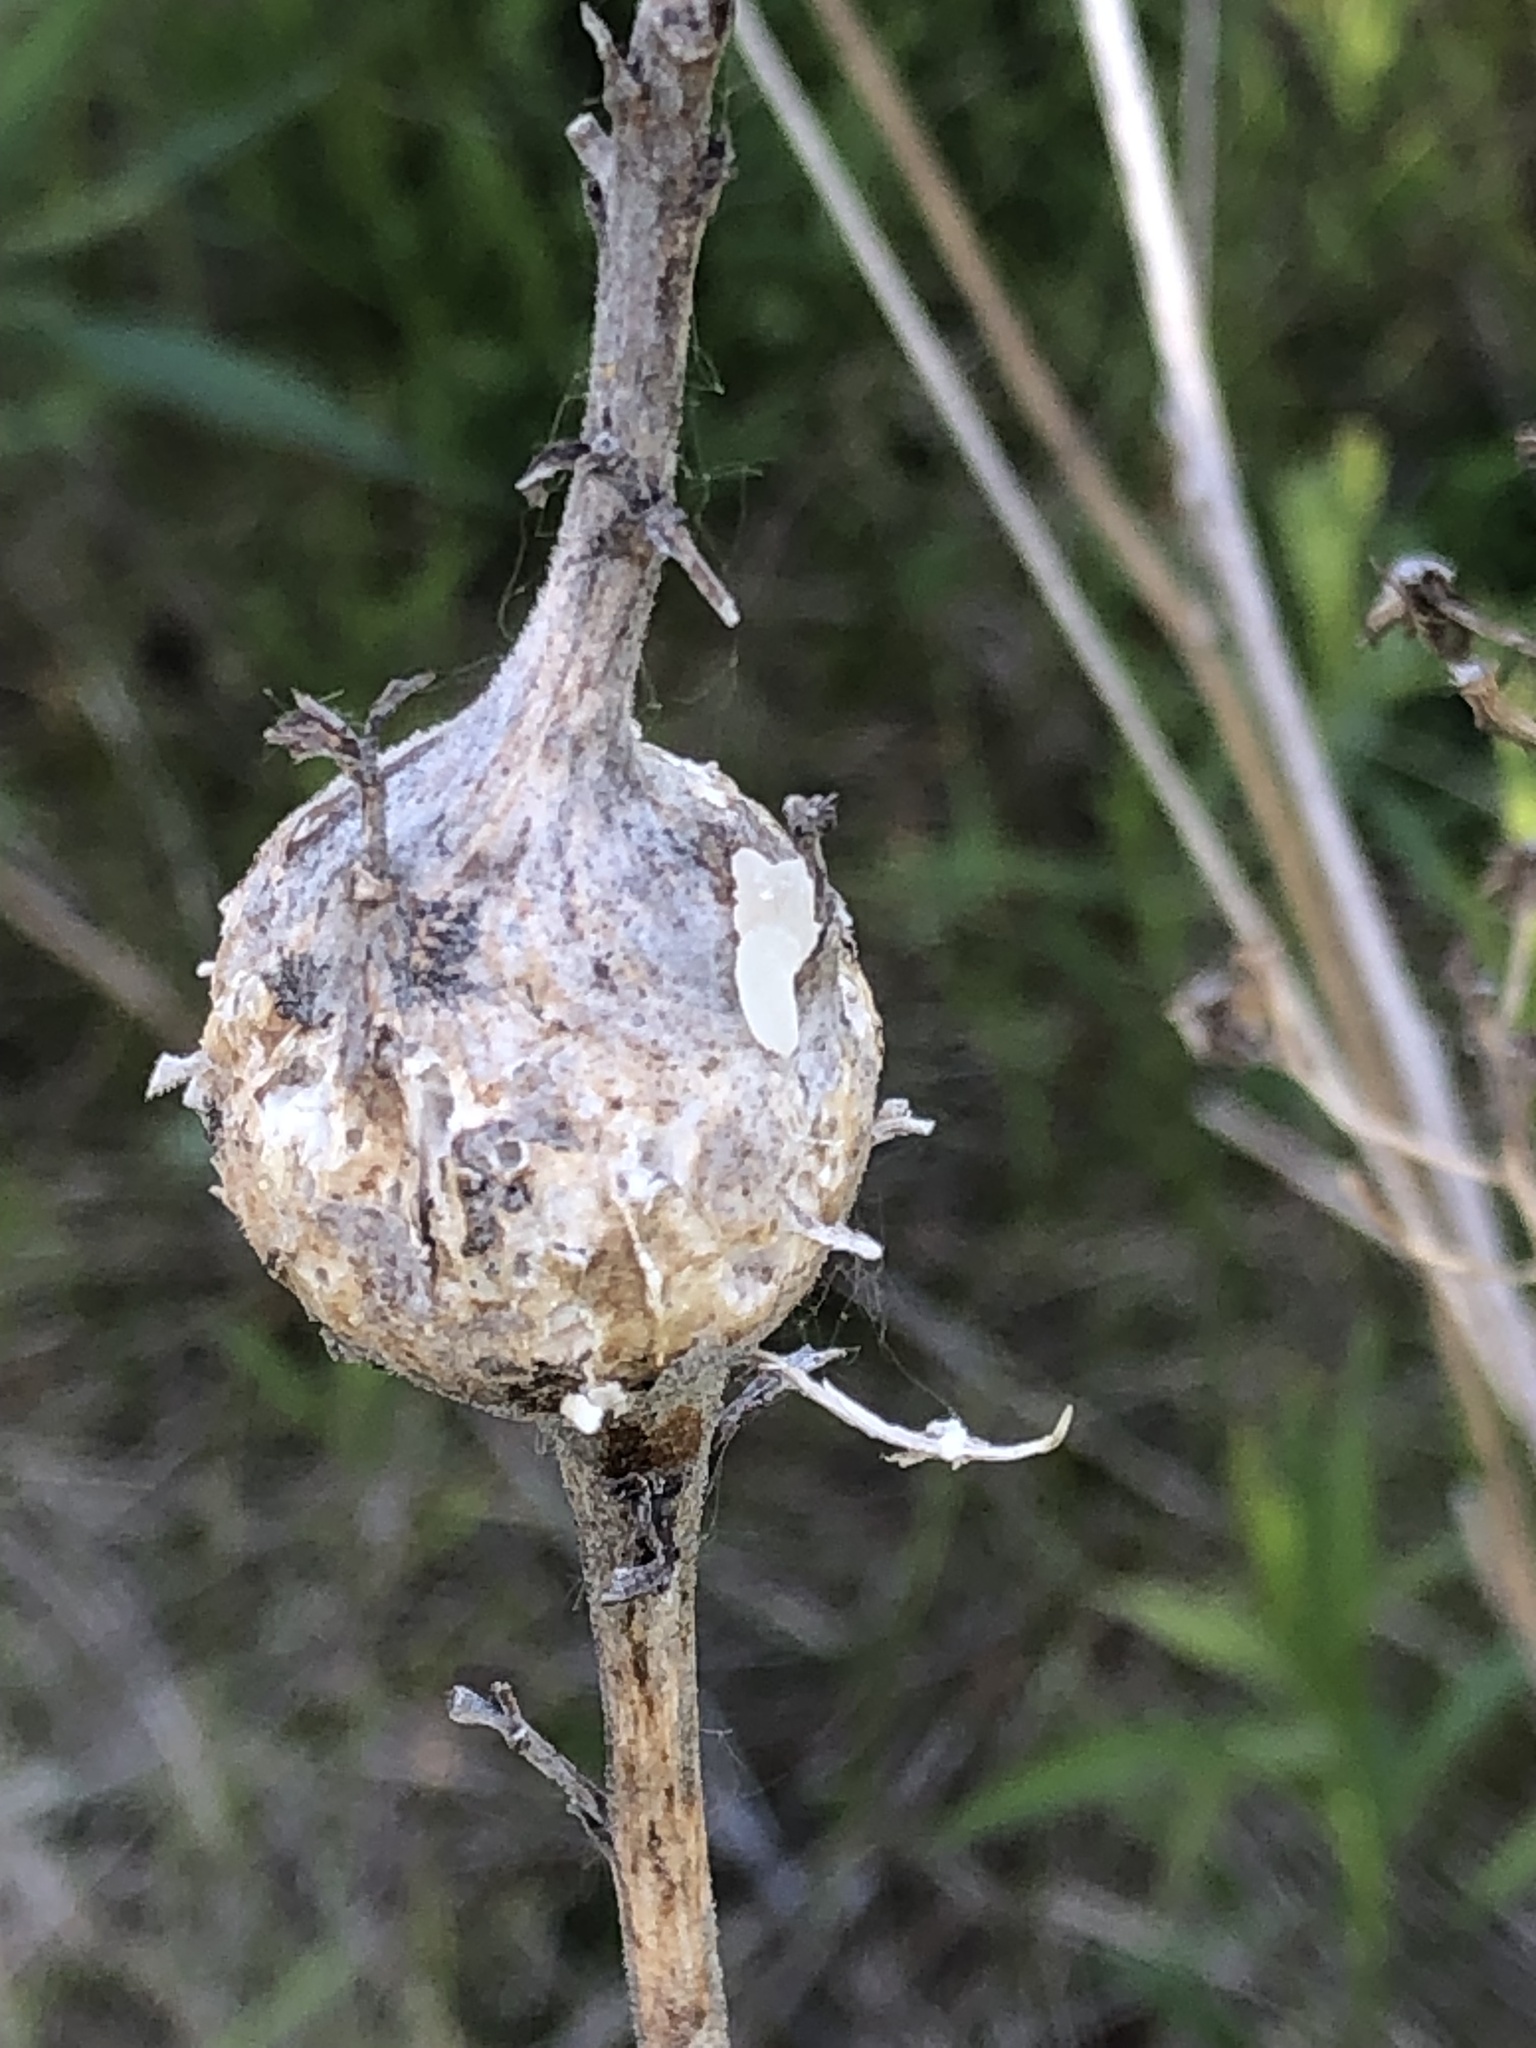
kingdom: Animalia
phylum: Arthropoda
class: Insecta
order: Diptera
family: Tephritidae
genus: Eurosta
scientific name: Eurosta solidaginis
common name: Goldenrod gall fly
